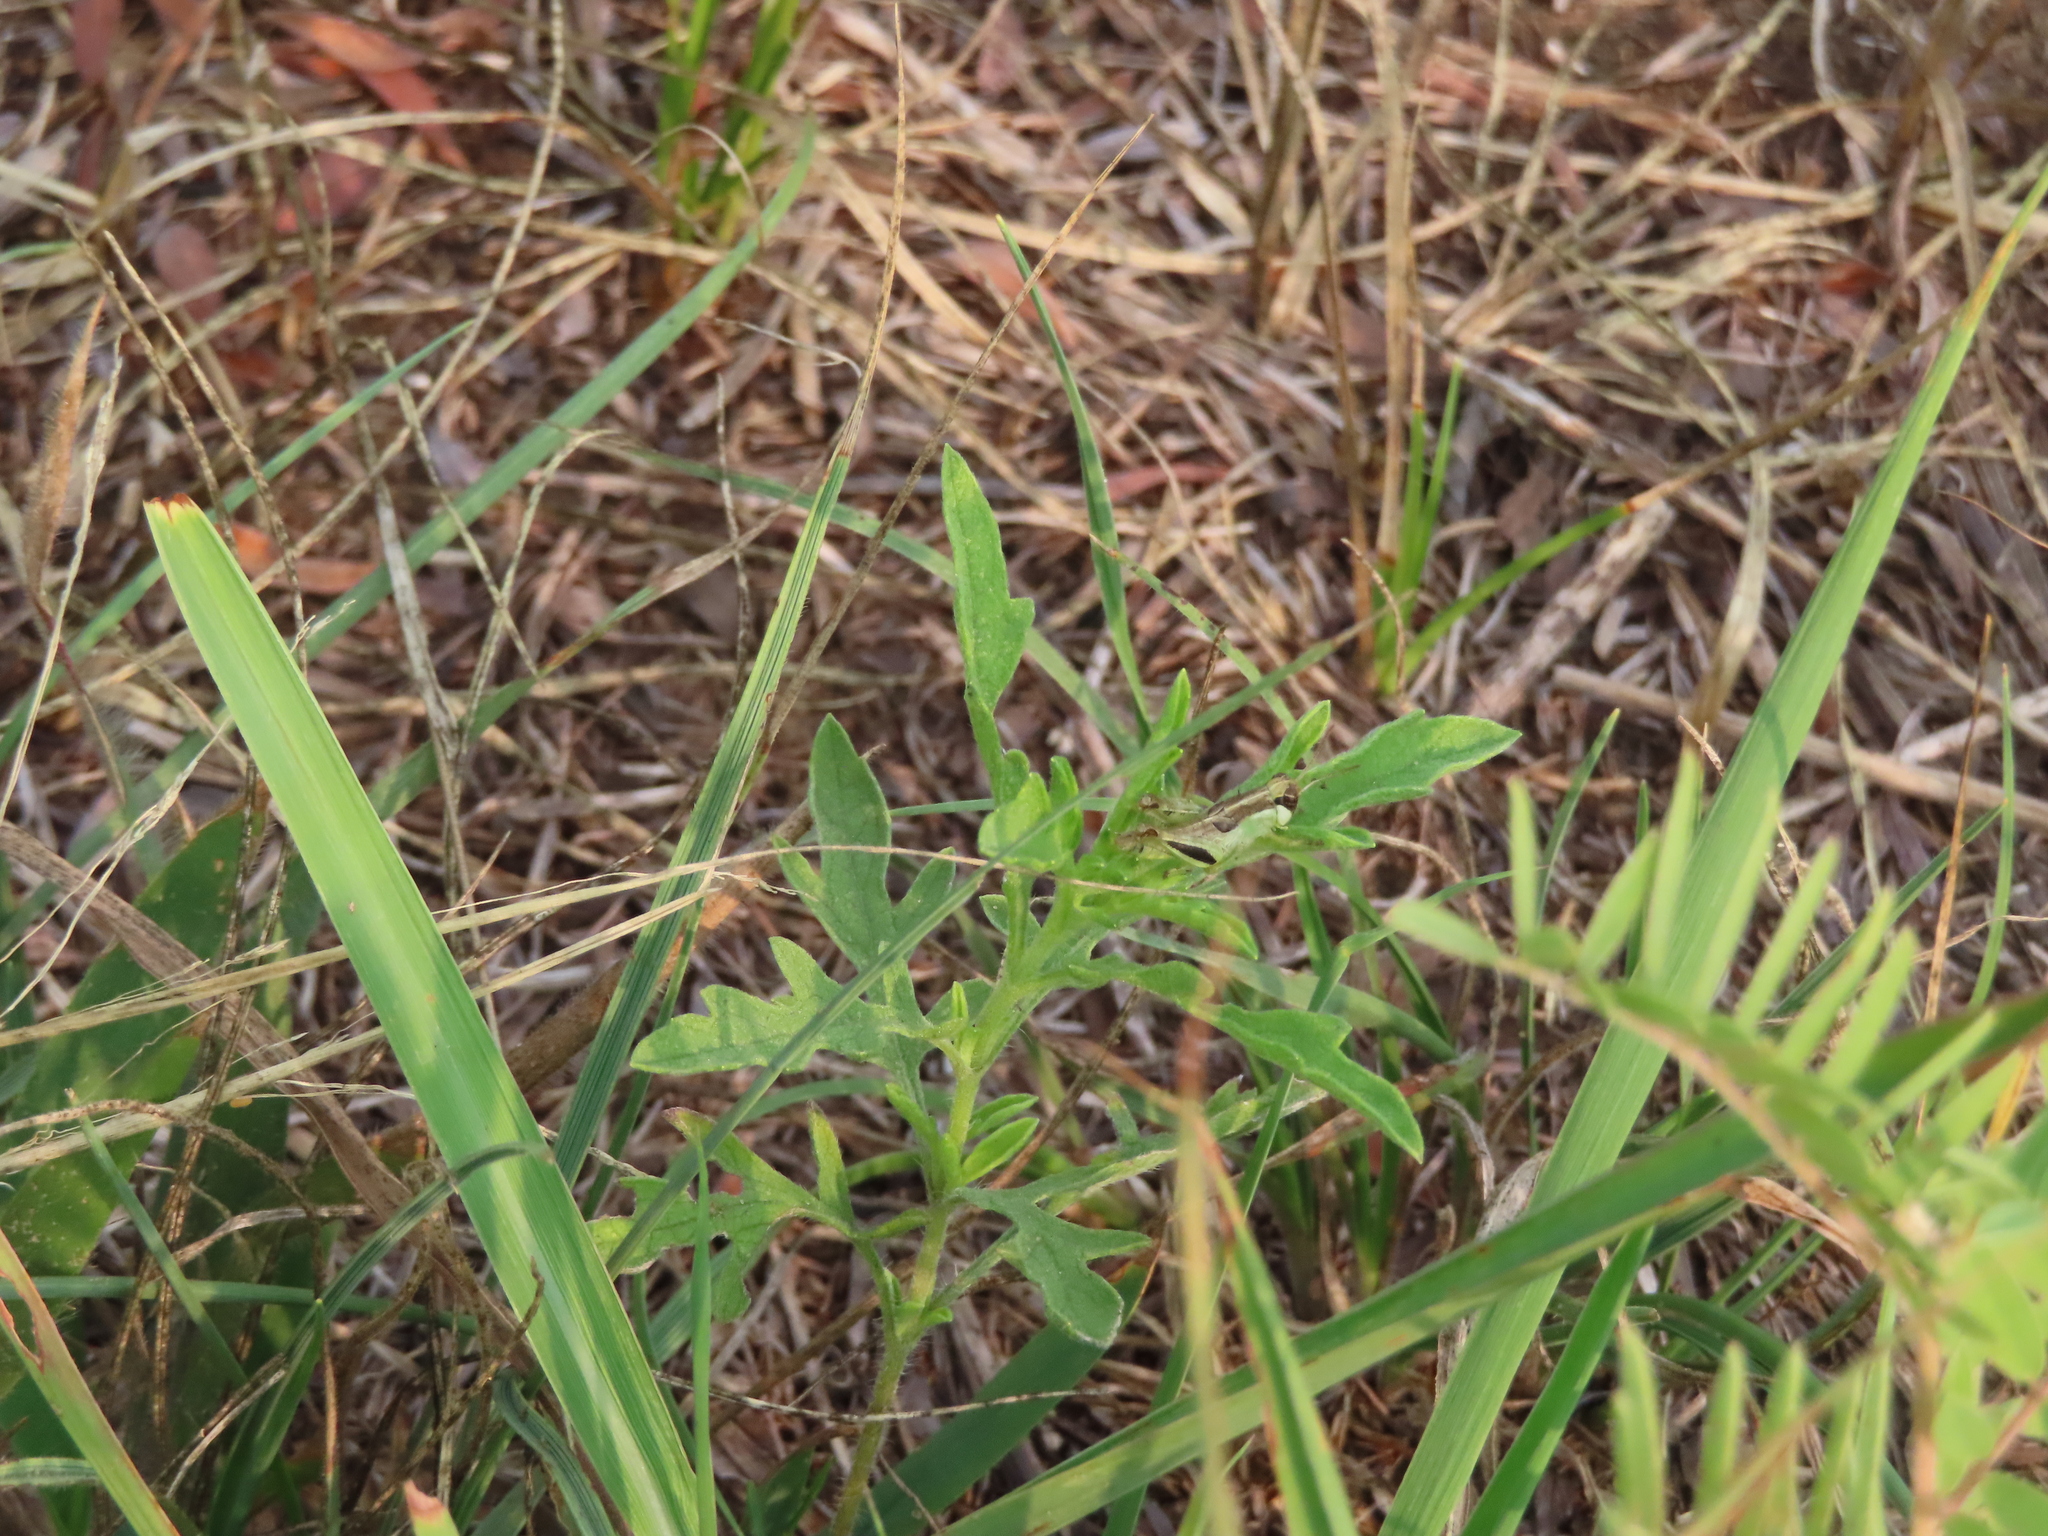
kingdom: Animalia
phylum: Arthropoda
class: Insecta
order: Orthoptera
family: Acrididae
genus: Melanoplus
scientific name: Melanoplus keeleri
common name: Keeler grasshopper
